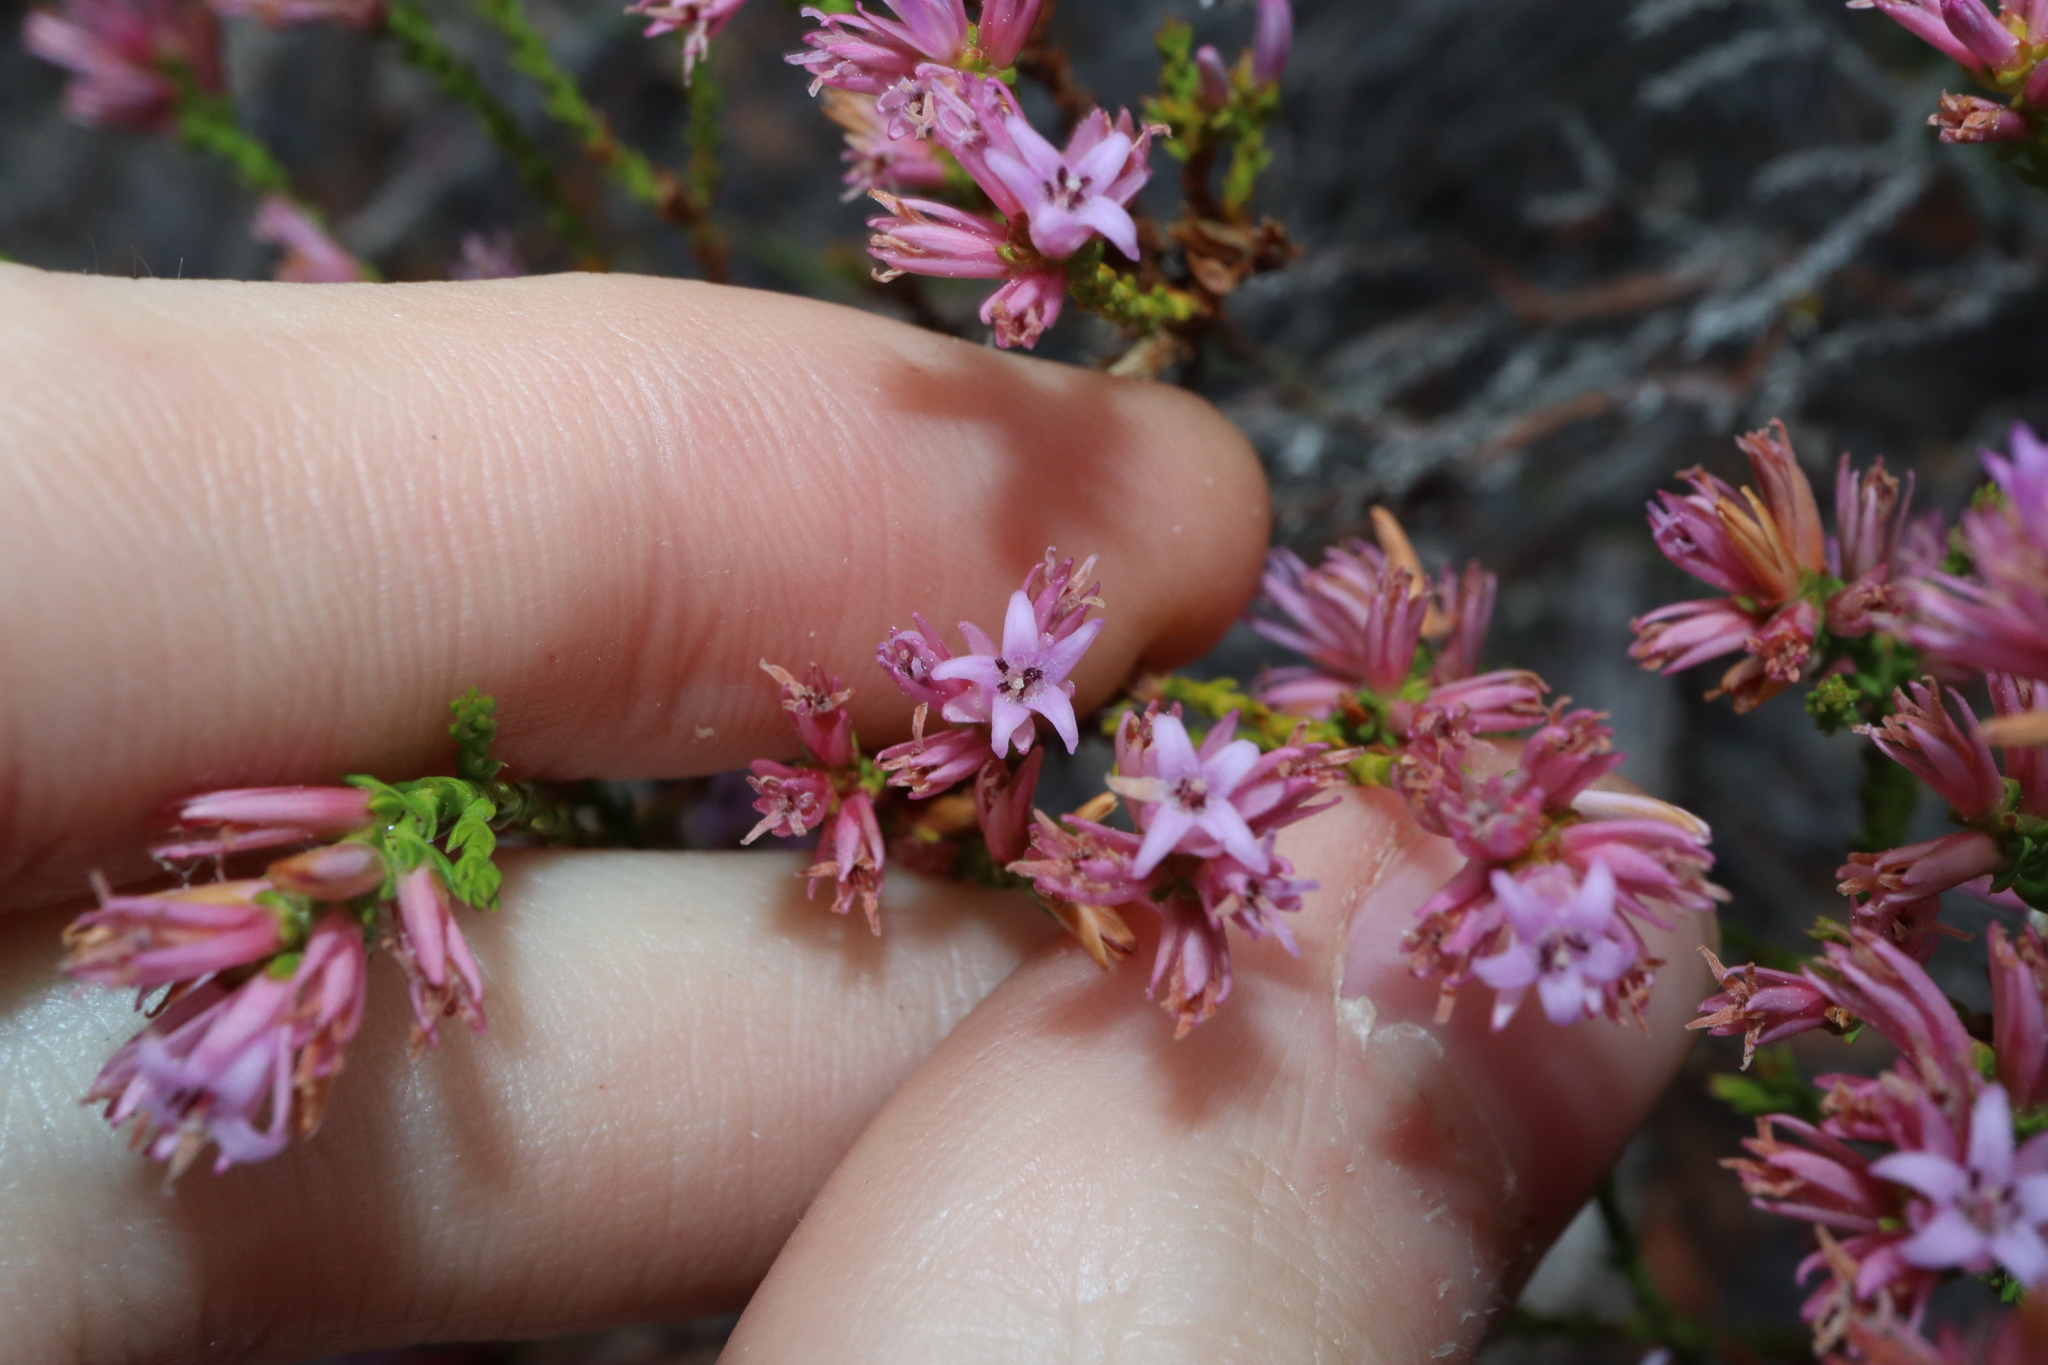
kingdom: Plantae
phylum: Tracheophyta
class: Magnoliopsida
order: Ericales
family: Ericaceae
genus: Andersonia
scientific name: Andersonia parvifolia
